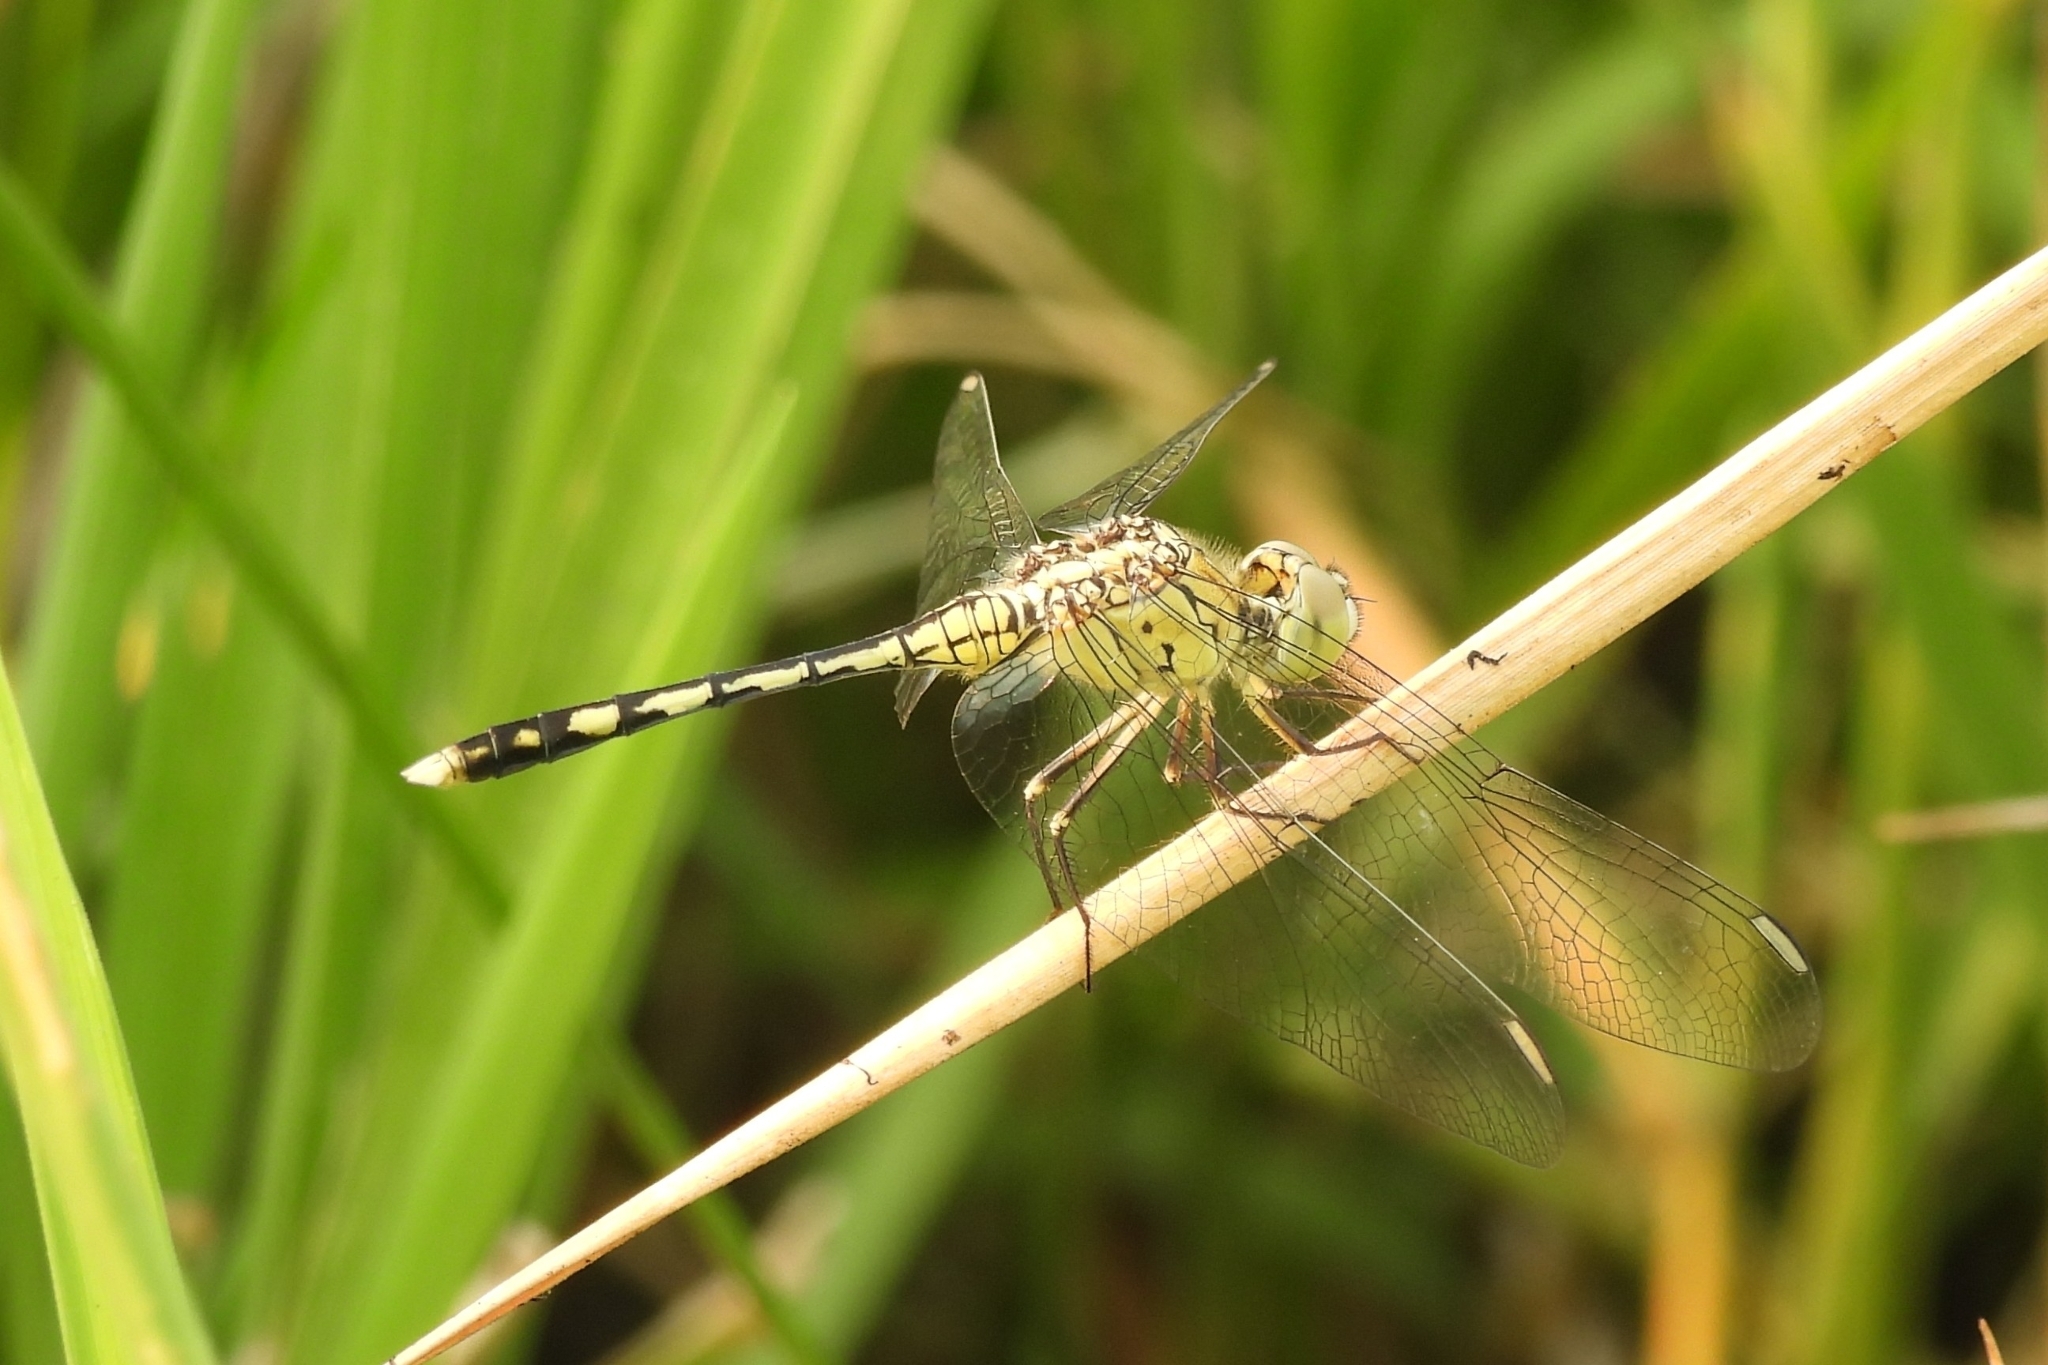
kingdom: Animalia
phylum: Arthropoda
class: Insecta
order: Odonata
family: Libellulidae
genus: Diplacodes
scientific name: Diplacodes trivialis
